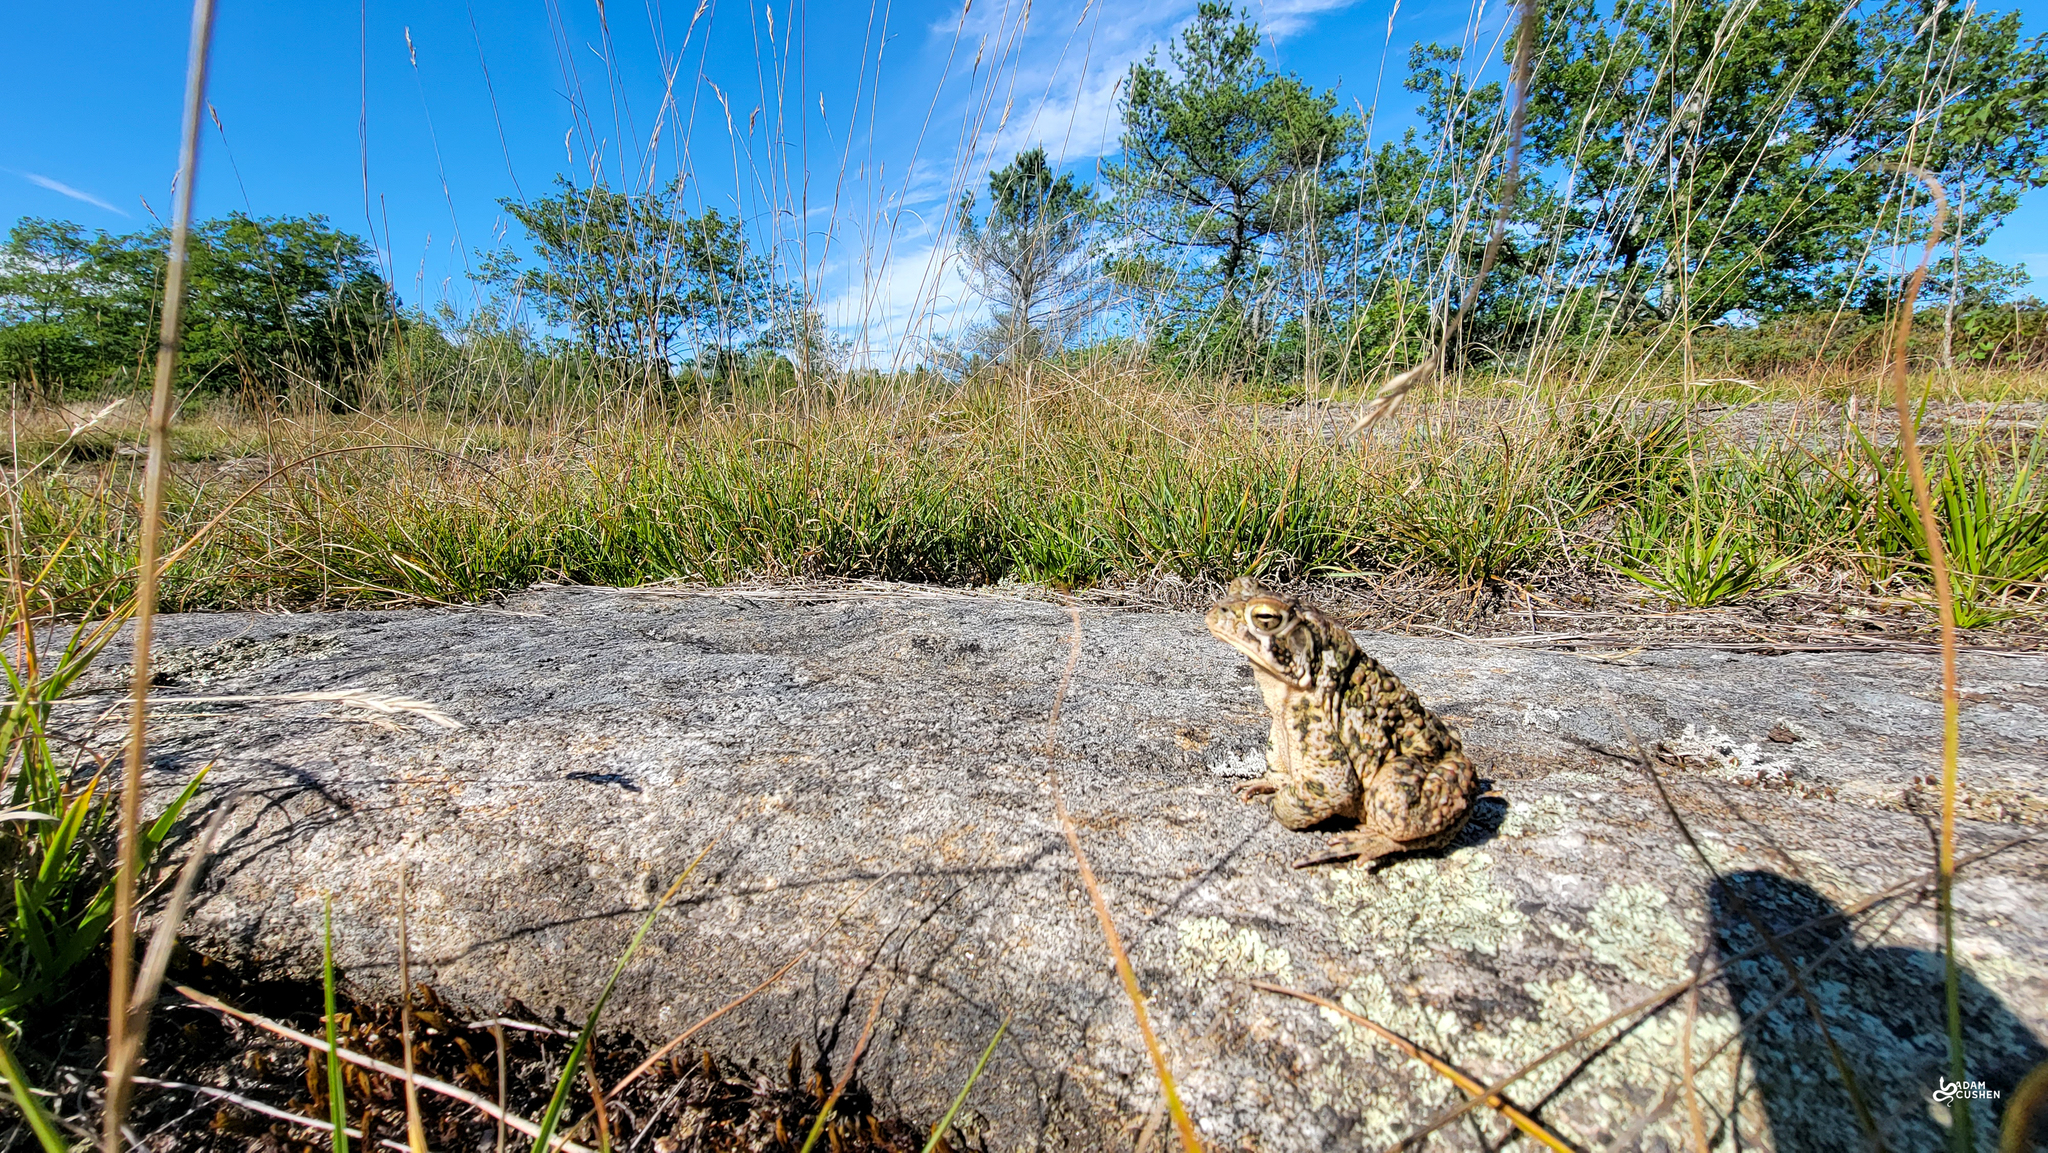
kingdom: Animalia
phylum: Chordata
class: Amphibia
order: Anura
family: Bufonidae
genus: Anaxyrus
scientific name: Anaxyrus americanus
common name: American toad
